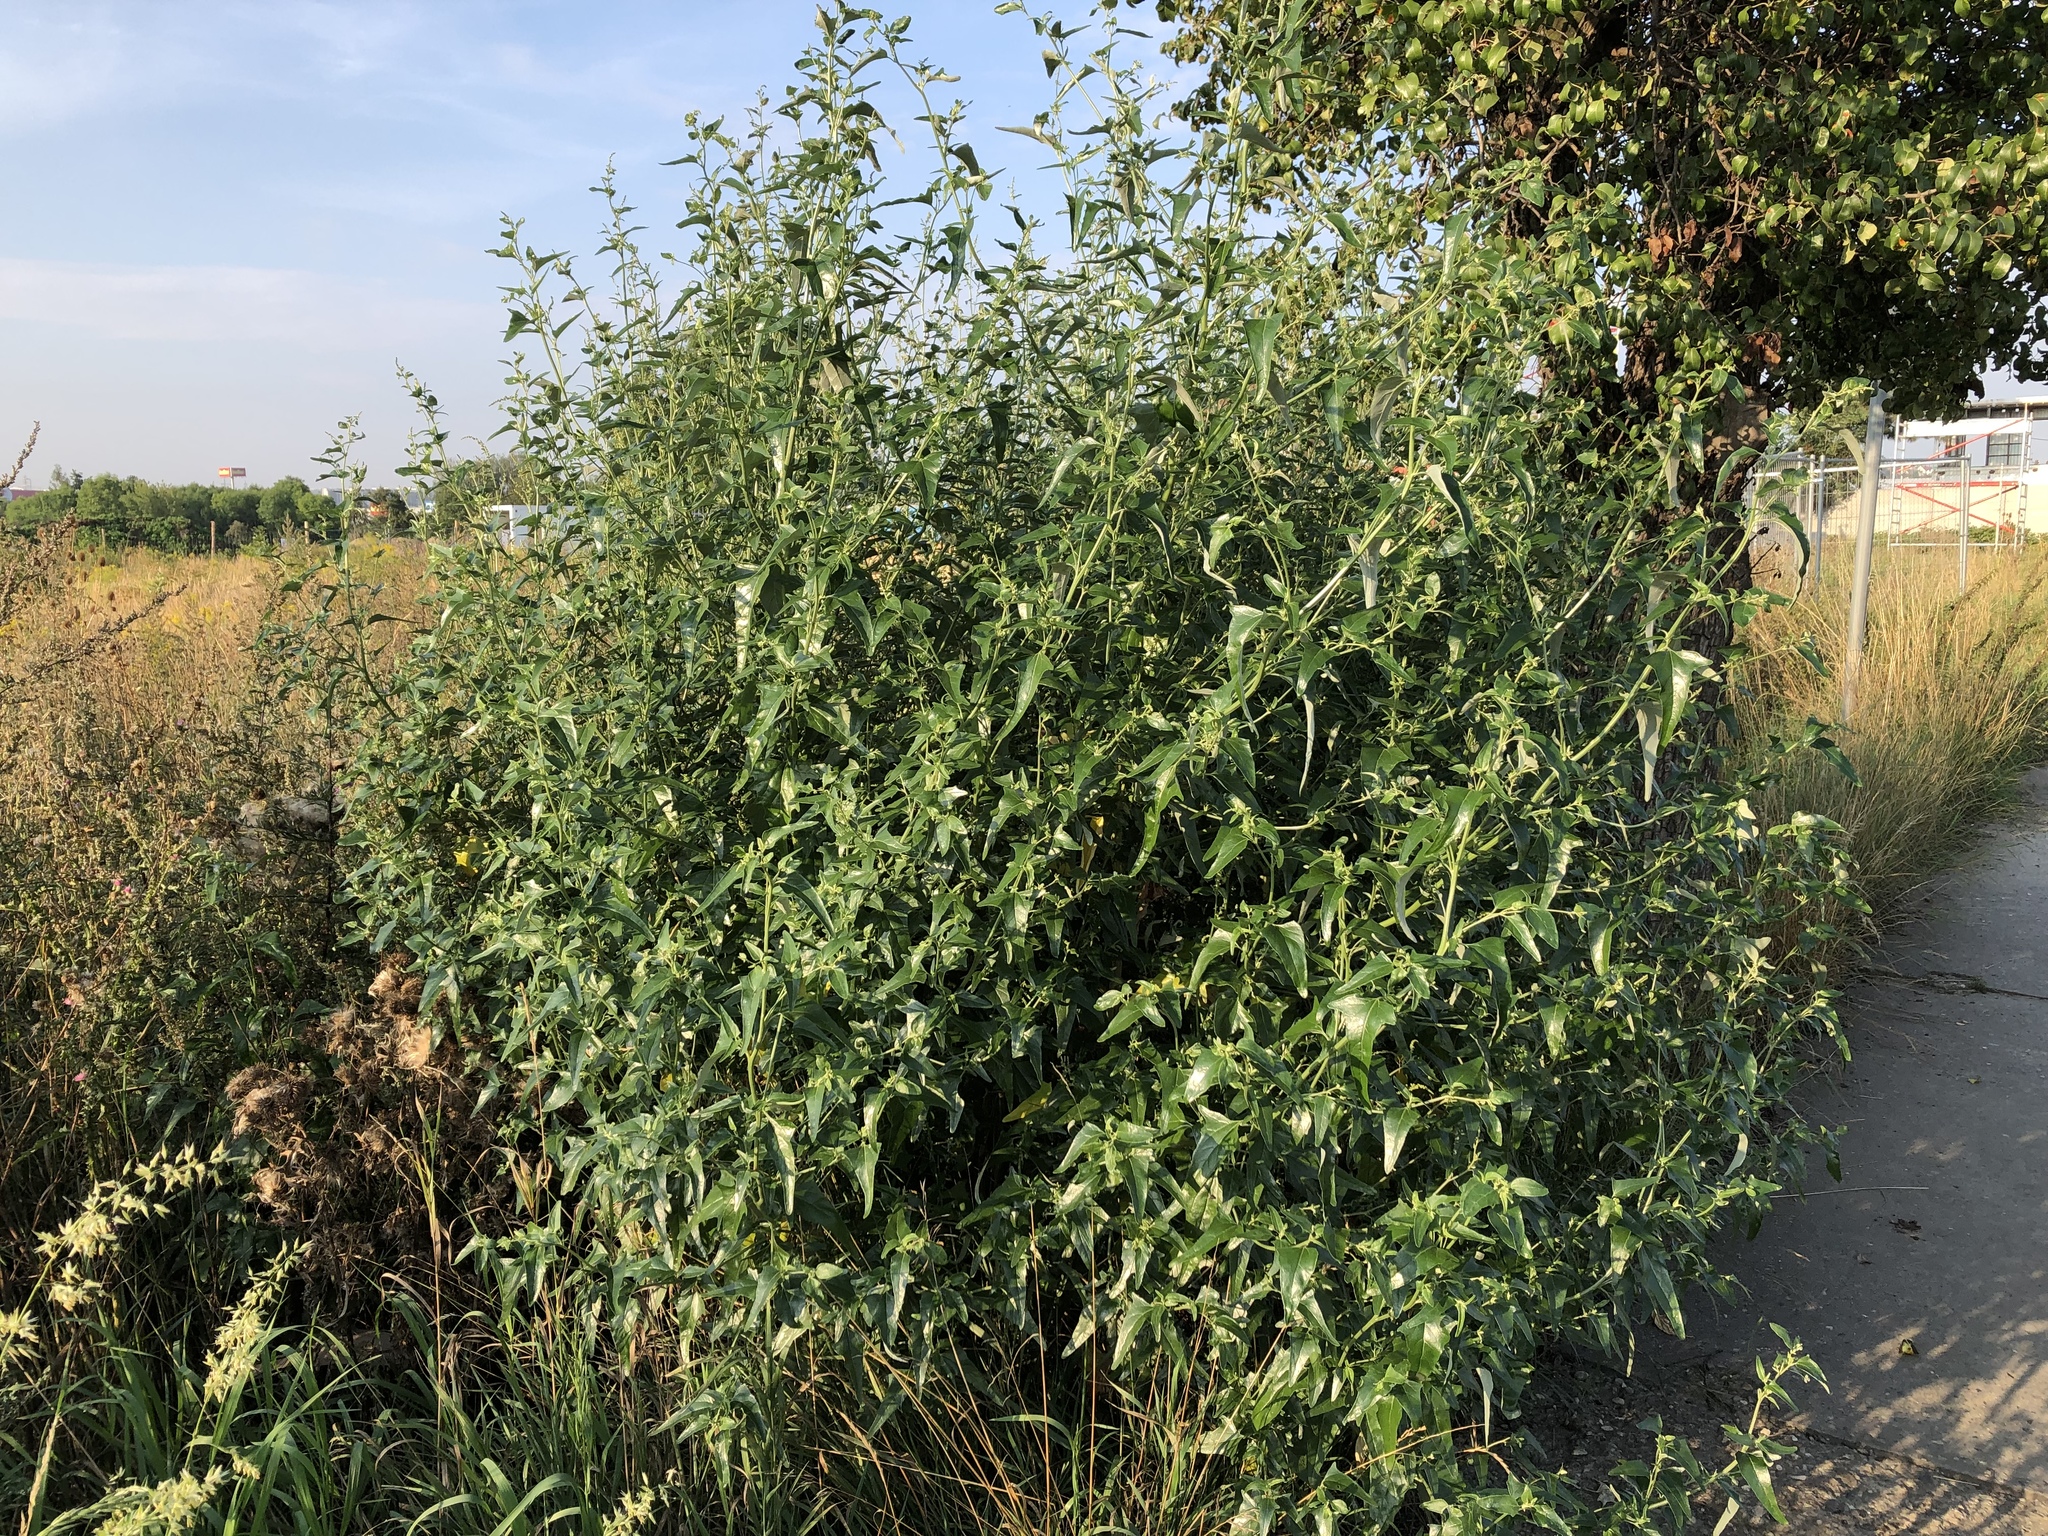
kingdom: Plantae
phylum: Tracheophyta
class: Magnoliopsida
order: Caryophyllales
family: Amaranthaceae
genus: Atriplex
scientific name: Atriplex sagittata
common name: Purple orache
